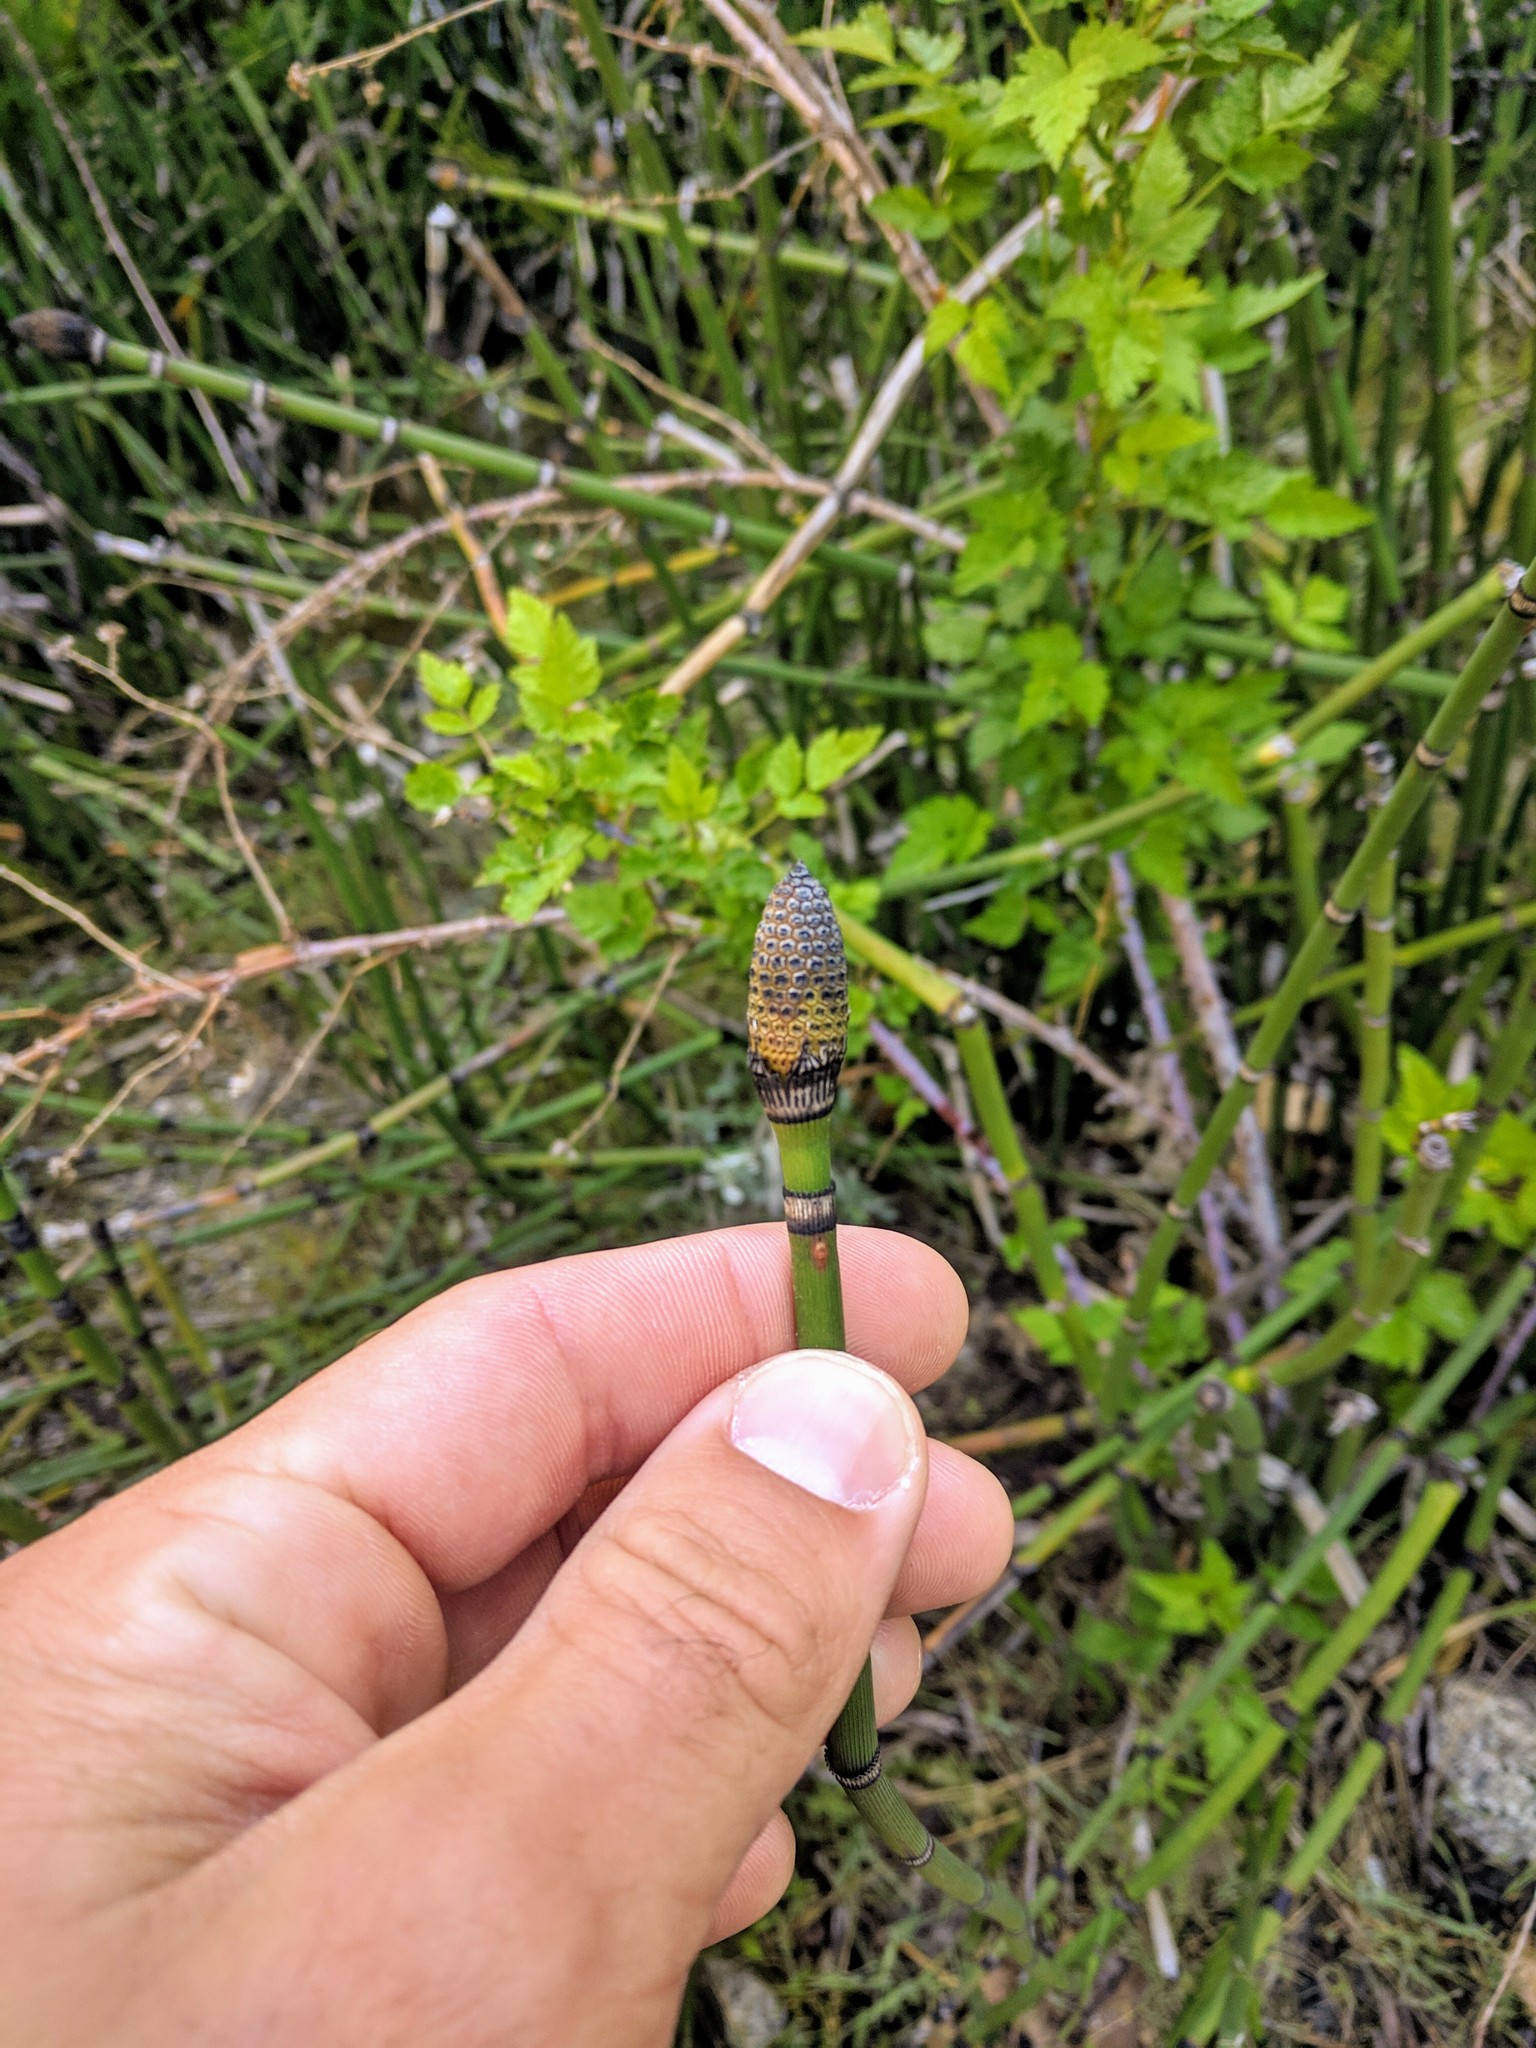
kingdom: Plantae
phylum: Tracheophyta
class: Polypodiopsida
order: Equisetales
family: Equisetaceae
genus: Equisetum
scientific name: Equisetum hyemale
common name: Rough horsetail
